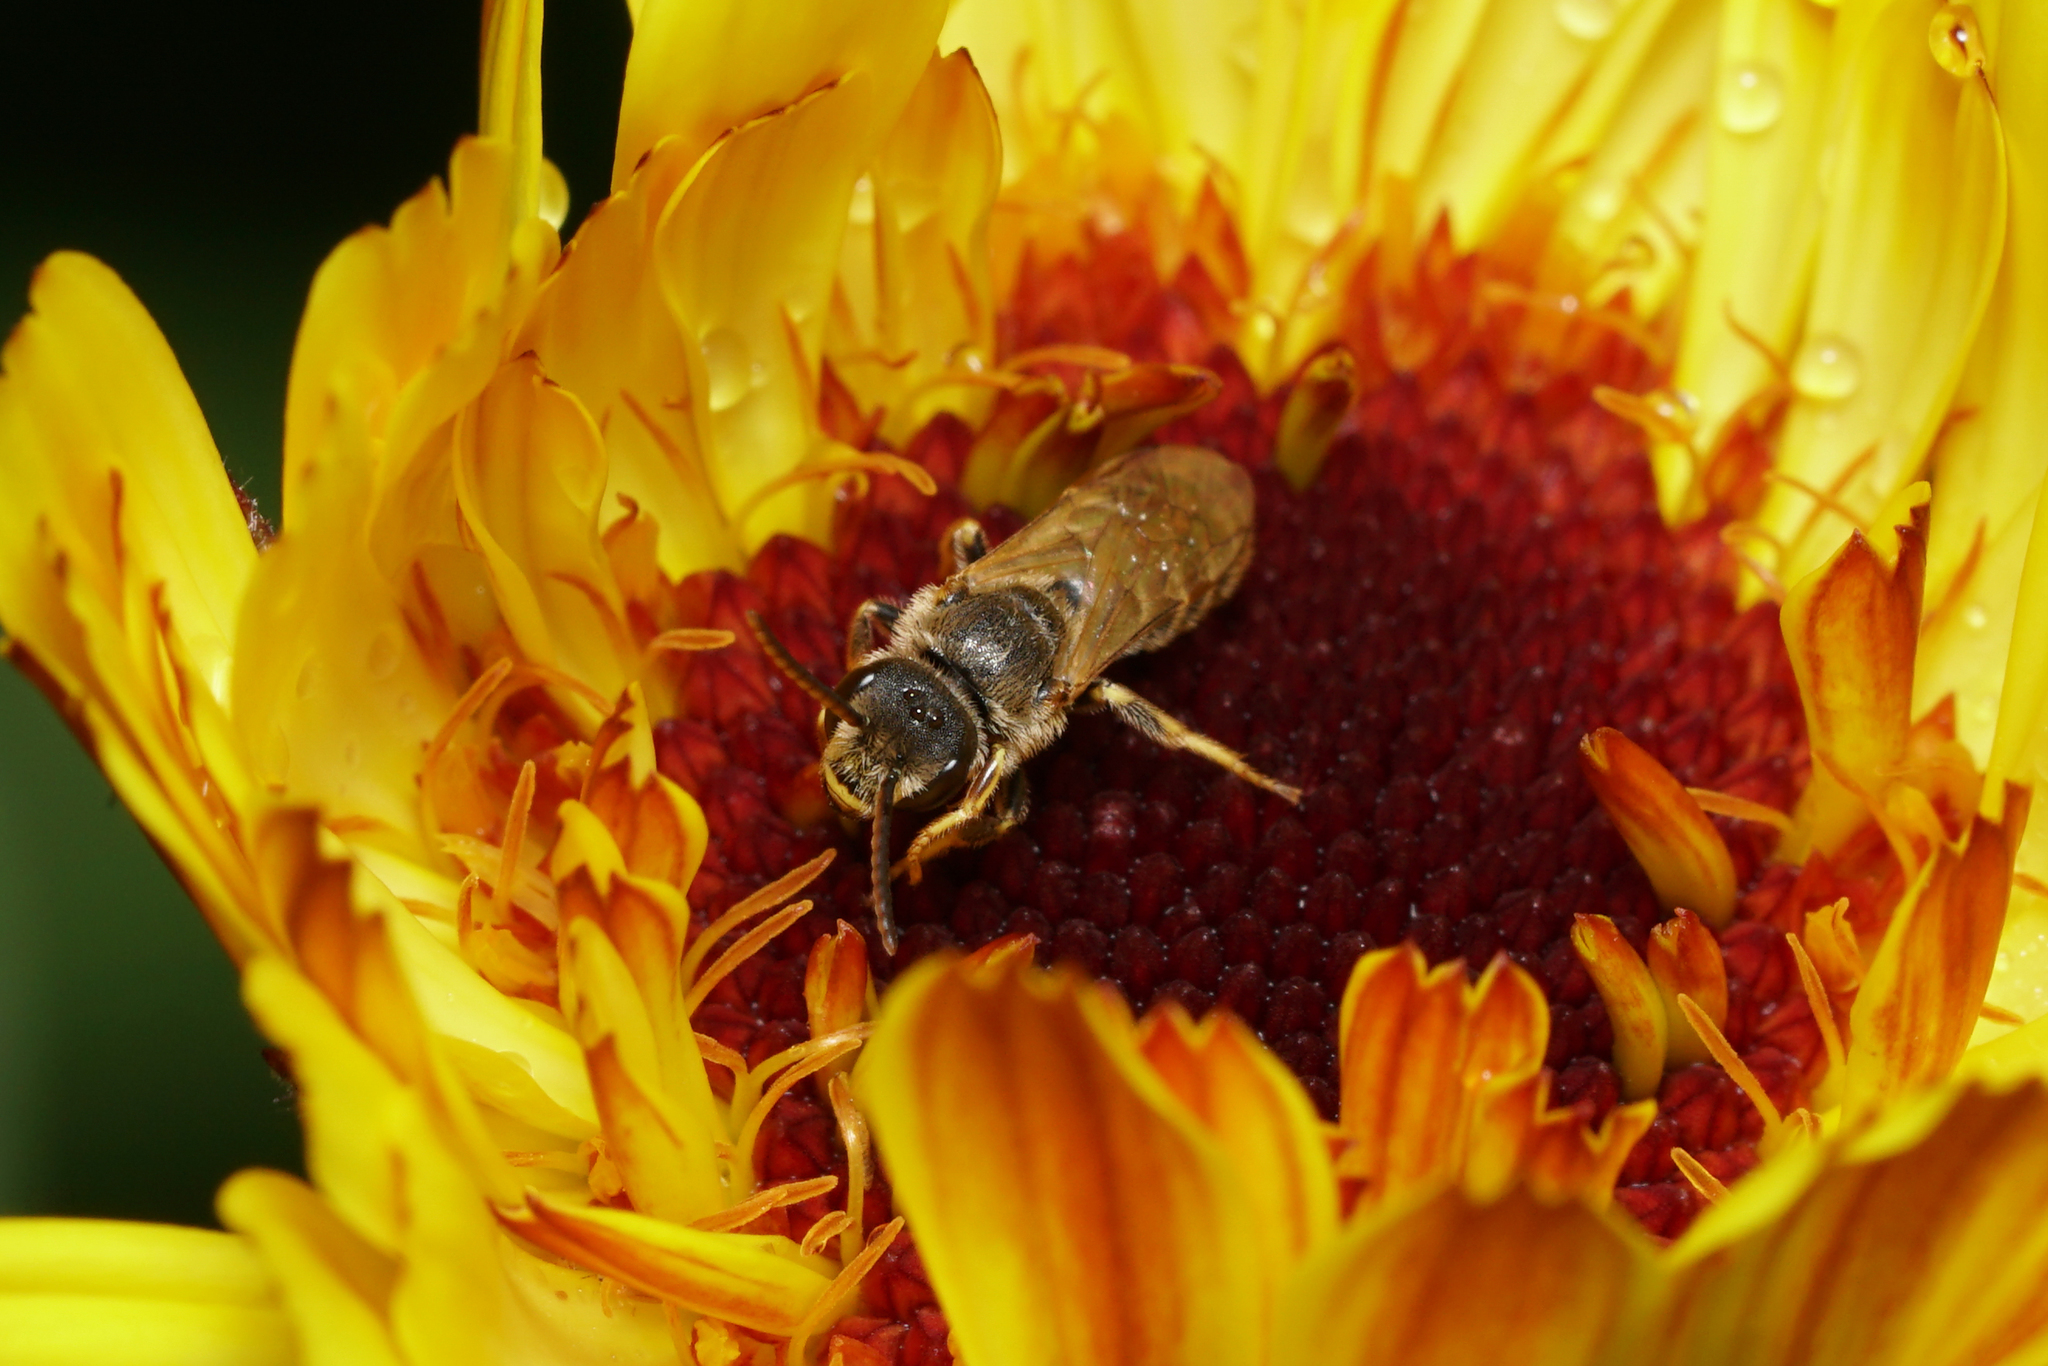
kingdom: Animalia
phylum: Arthropoda
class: Insecta
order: Hymenoptera
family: Halictidae
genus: Halictus
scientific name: Halictus ligatus
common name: Ligated furrow bee
